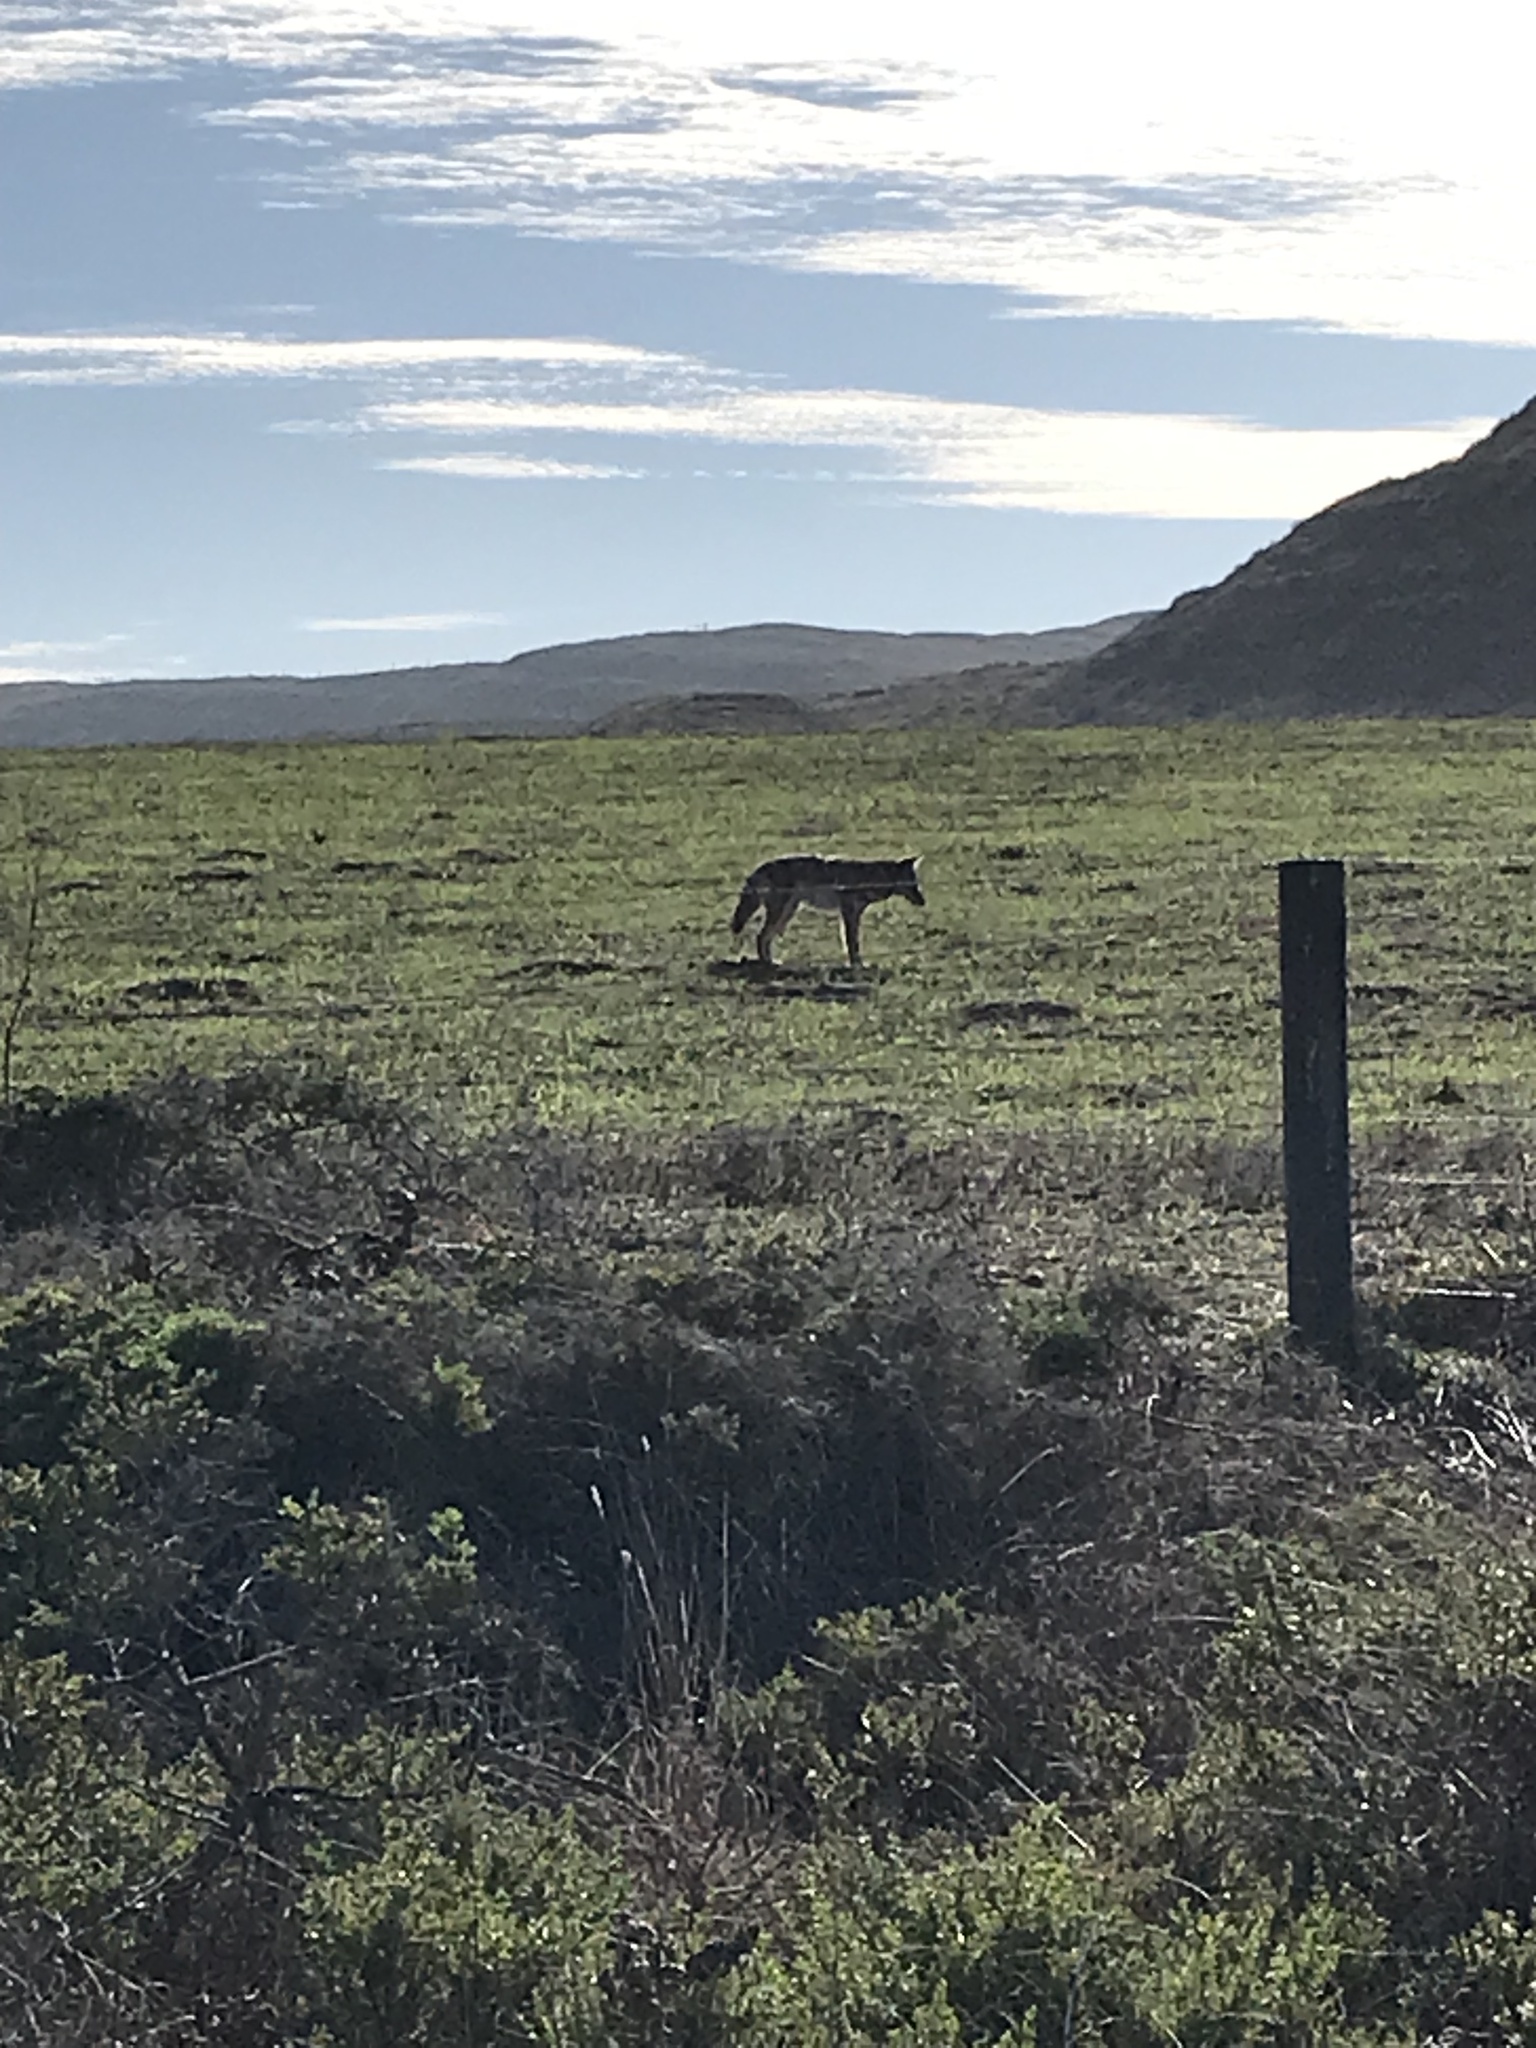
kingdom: Animalia
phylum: Chordata
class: Mammalia
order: Carnivora
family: Canidae
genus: Canis
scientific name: Canis latrans
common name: Coyote
